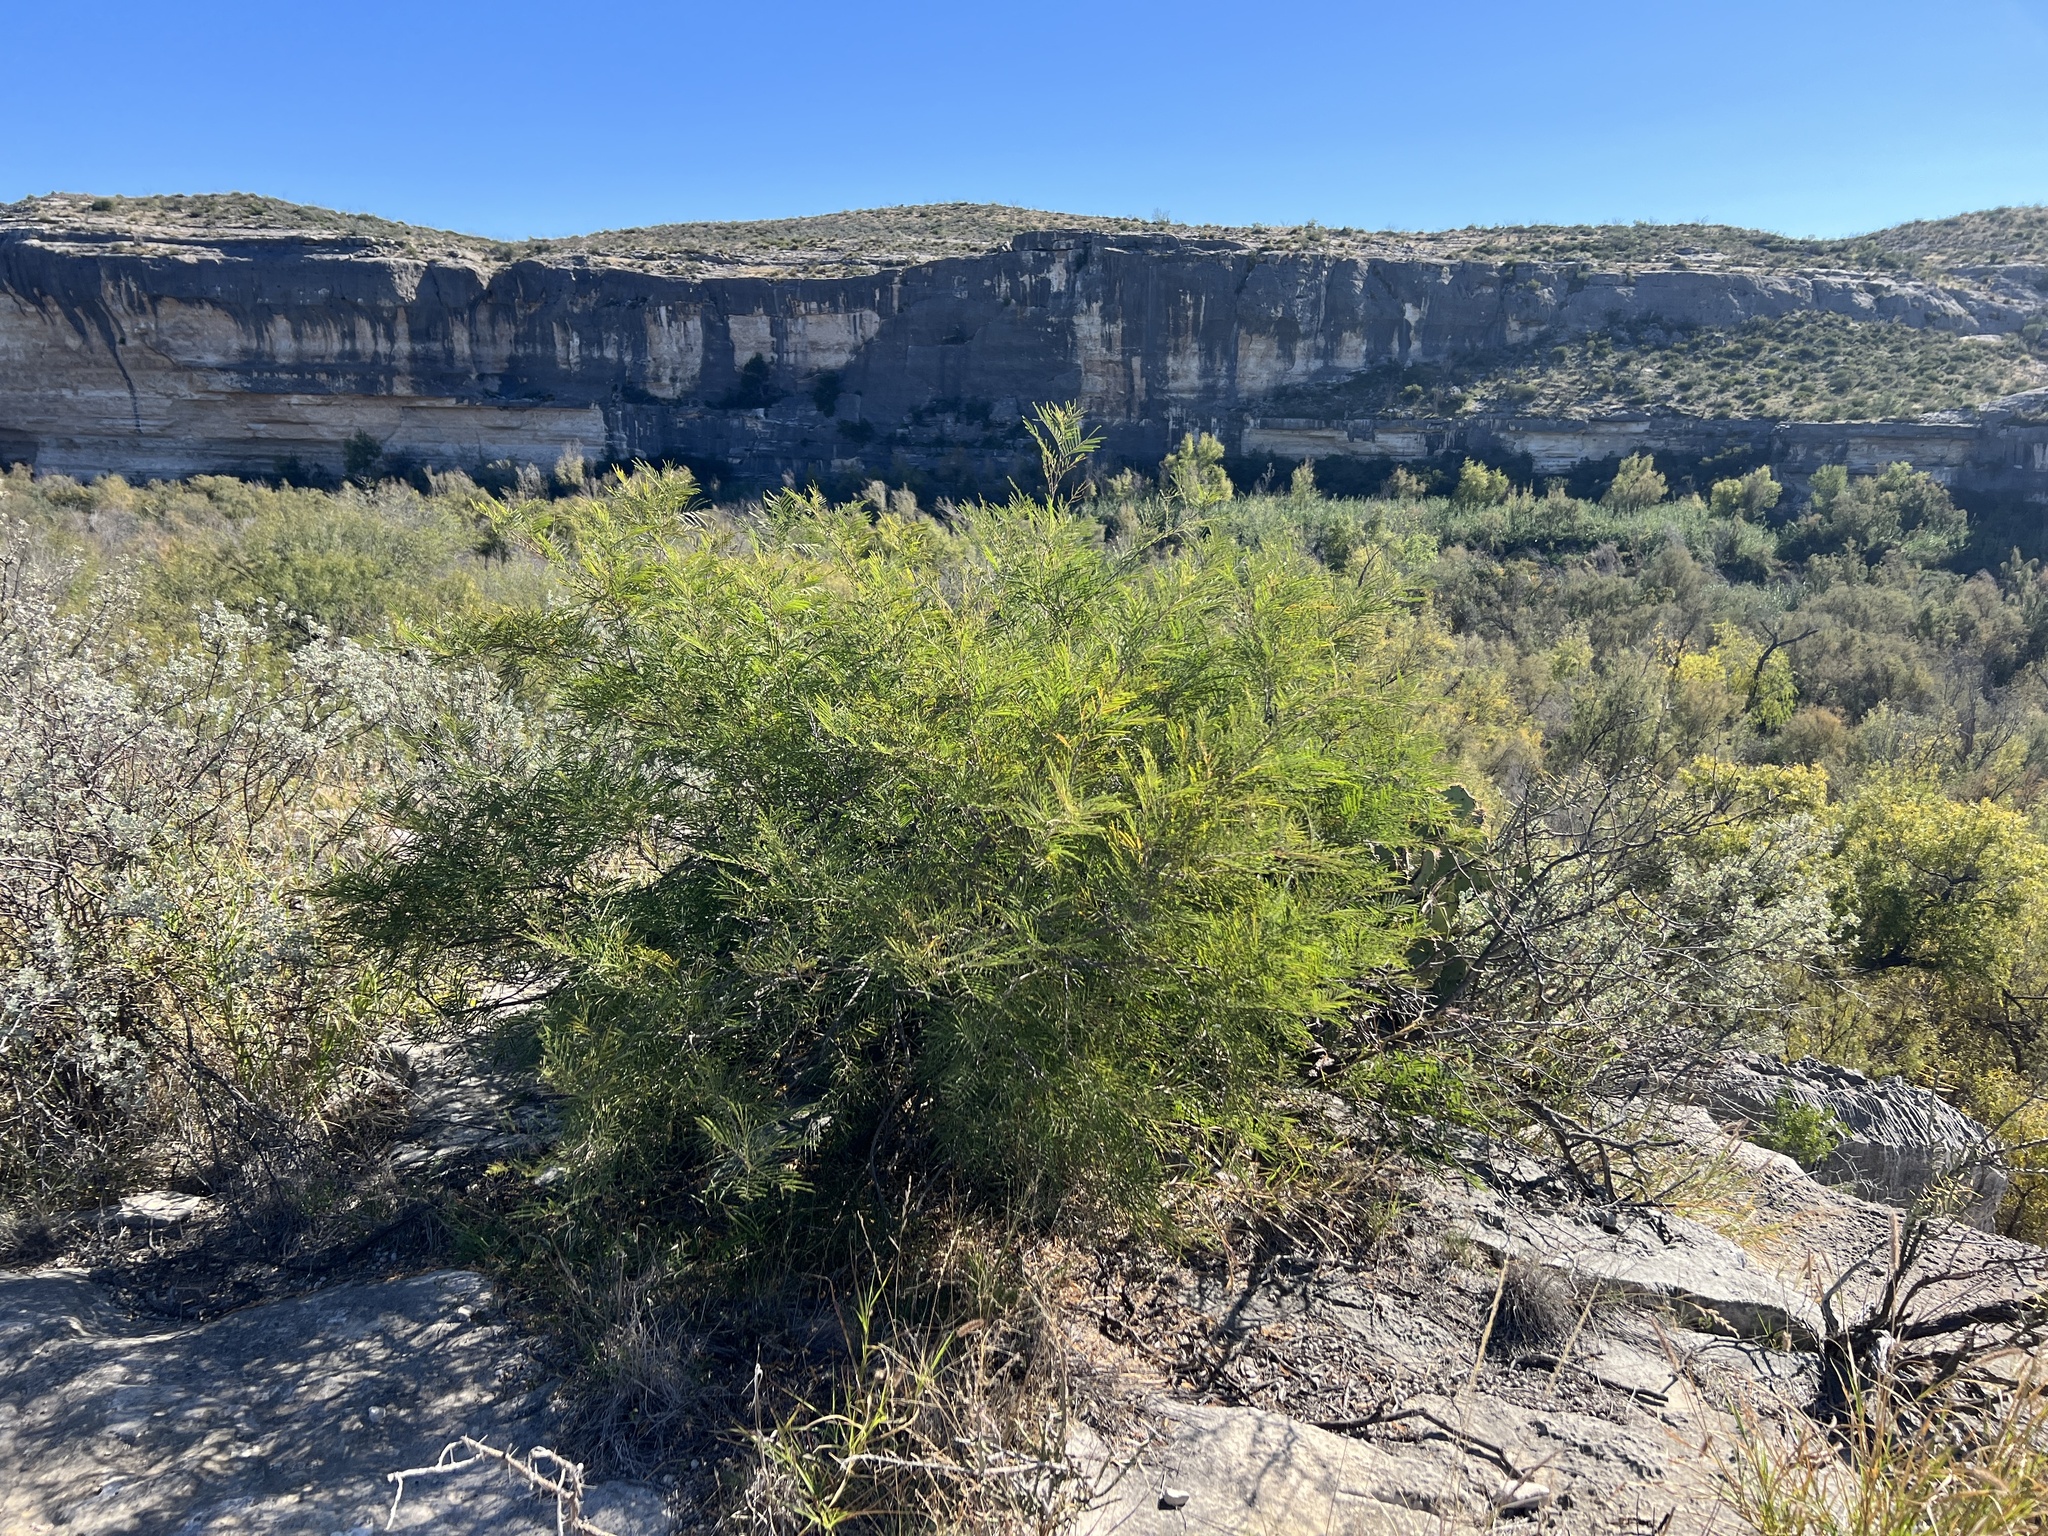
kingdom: Plantae
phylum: Tracheophyta
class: Magnoliopsida
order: Fabales
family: Fabaceae
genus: Senegalia
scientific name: Senegalia berlandieri
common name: Berlandier acacia
